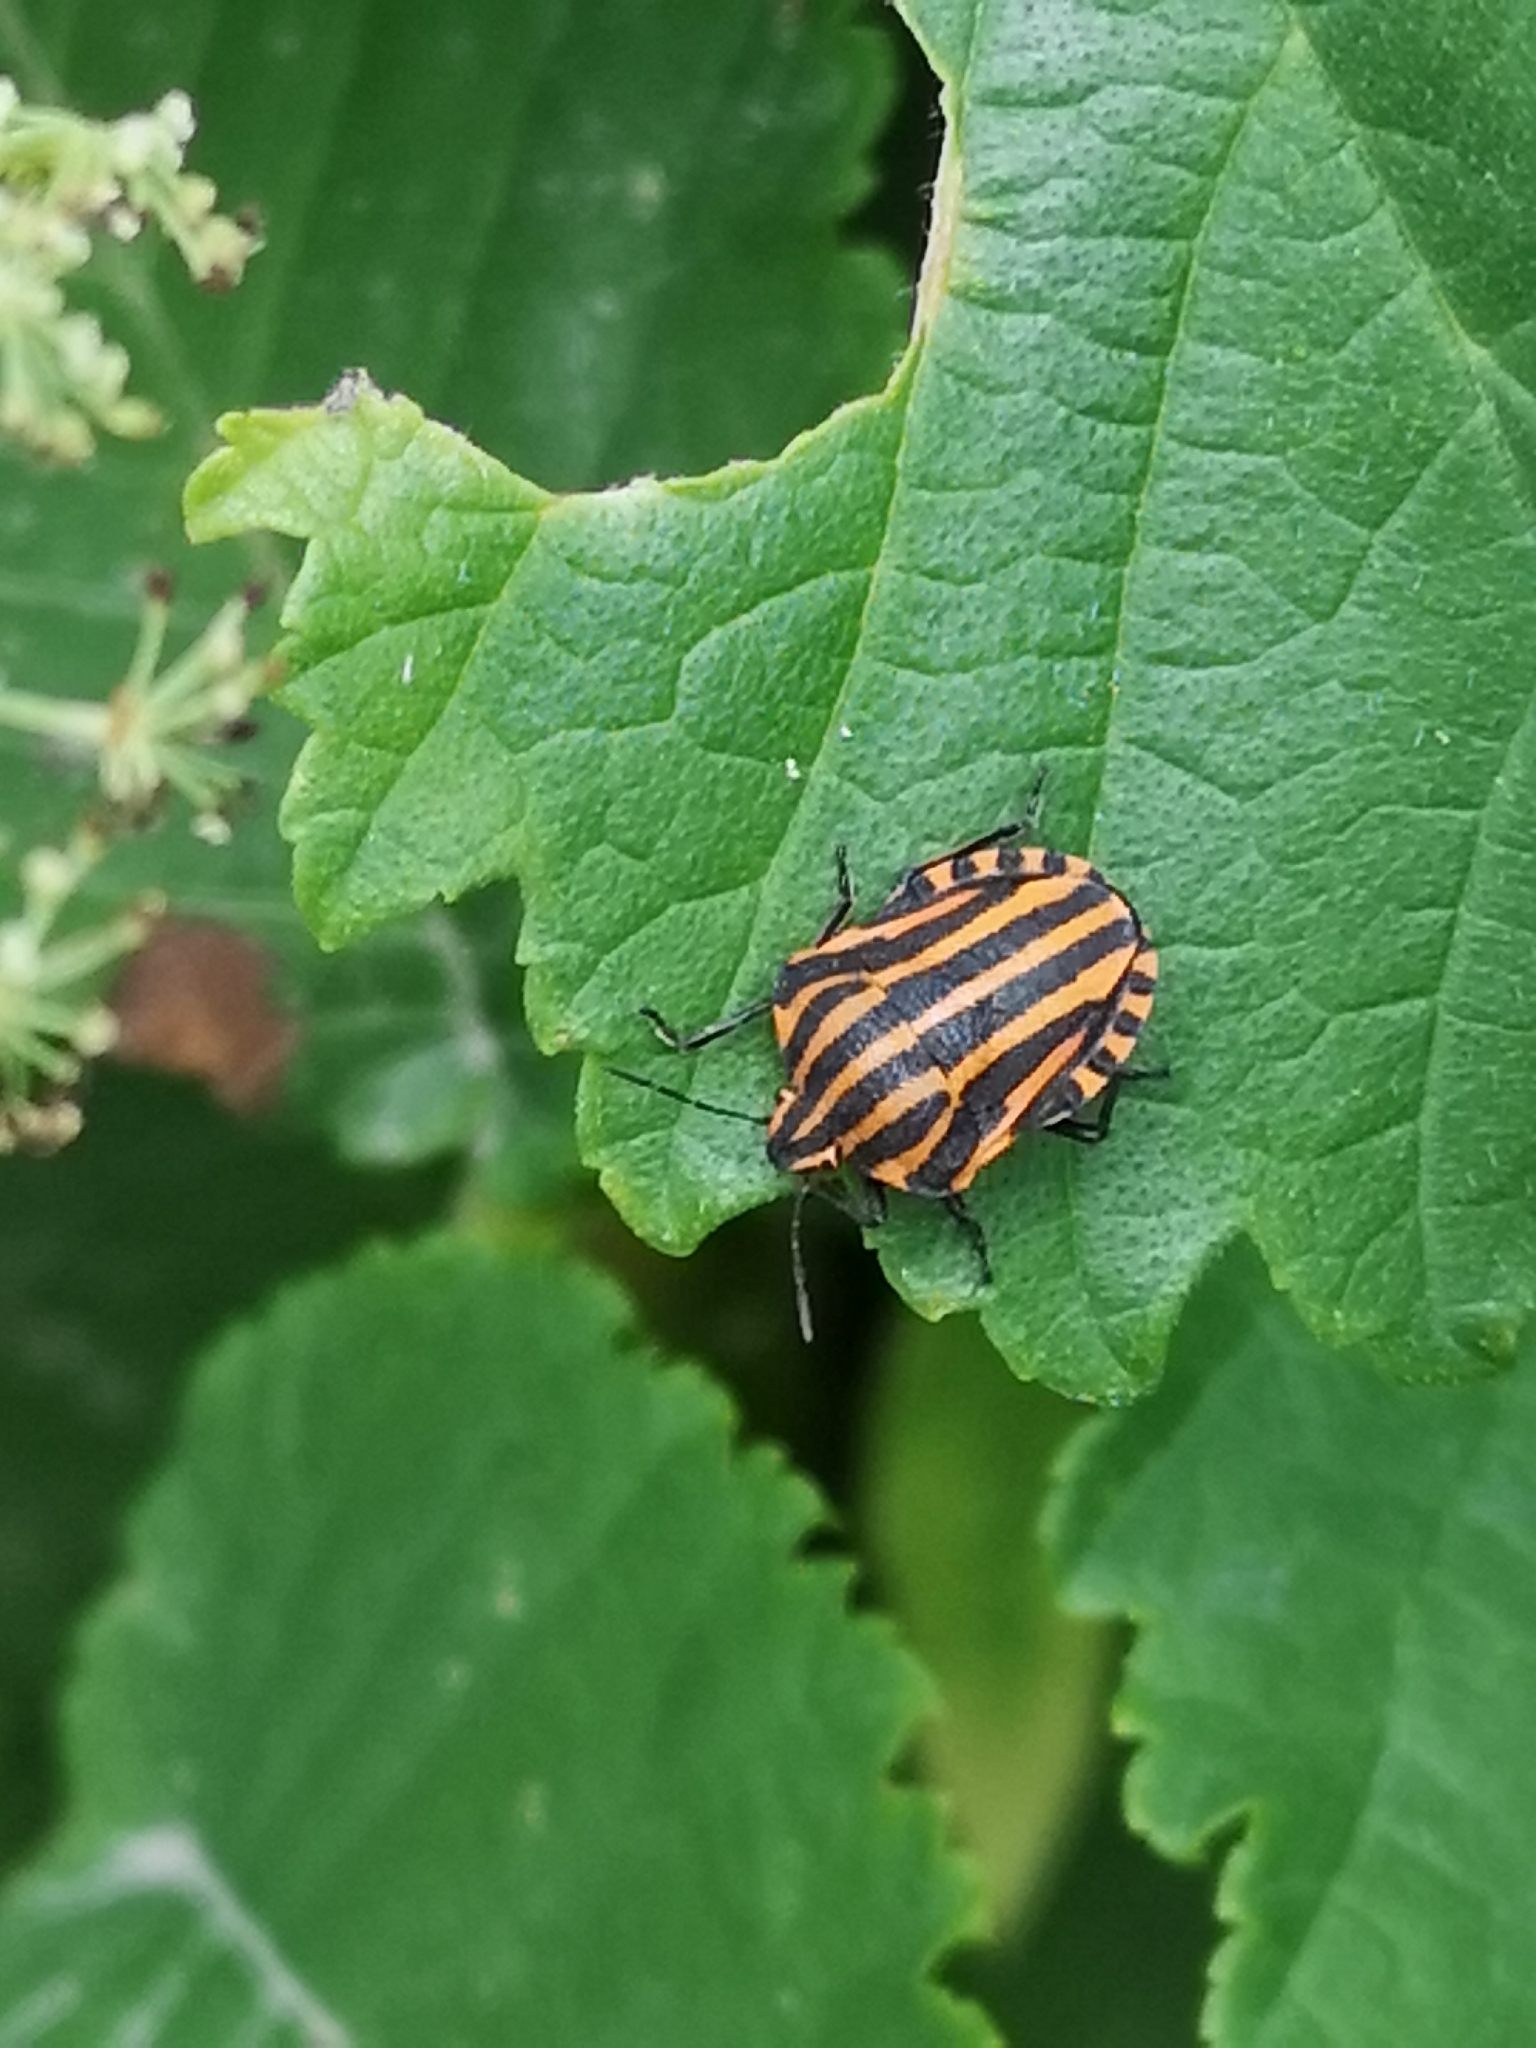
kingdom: Animalia
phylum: Arthropoda
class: Insecta
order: Hemiptera
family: Pentatomidae
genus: Graphosoma
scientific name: Graphosoma italicum
